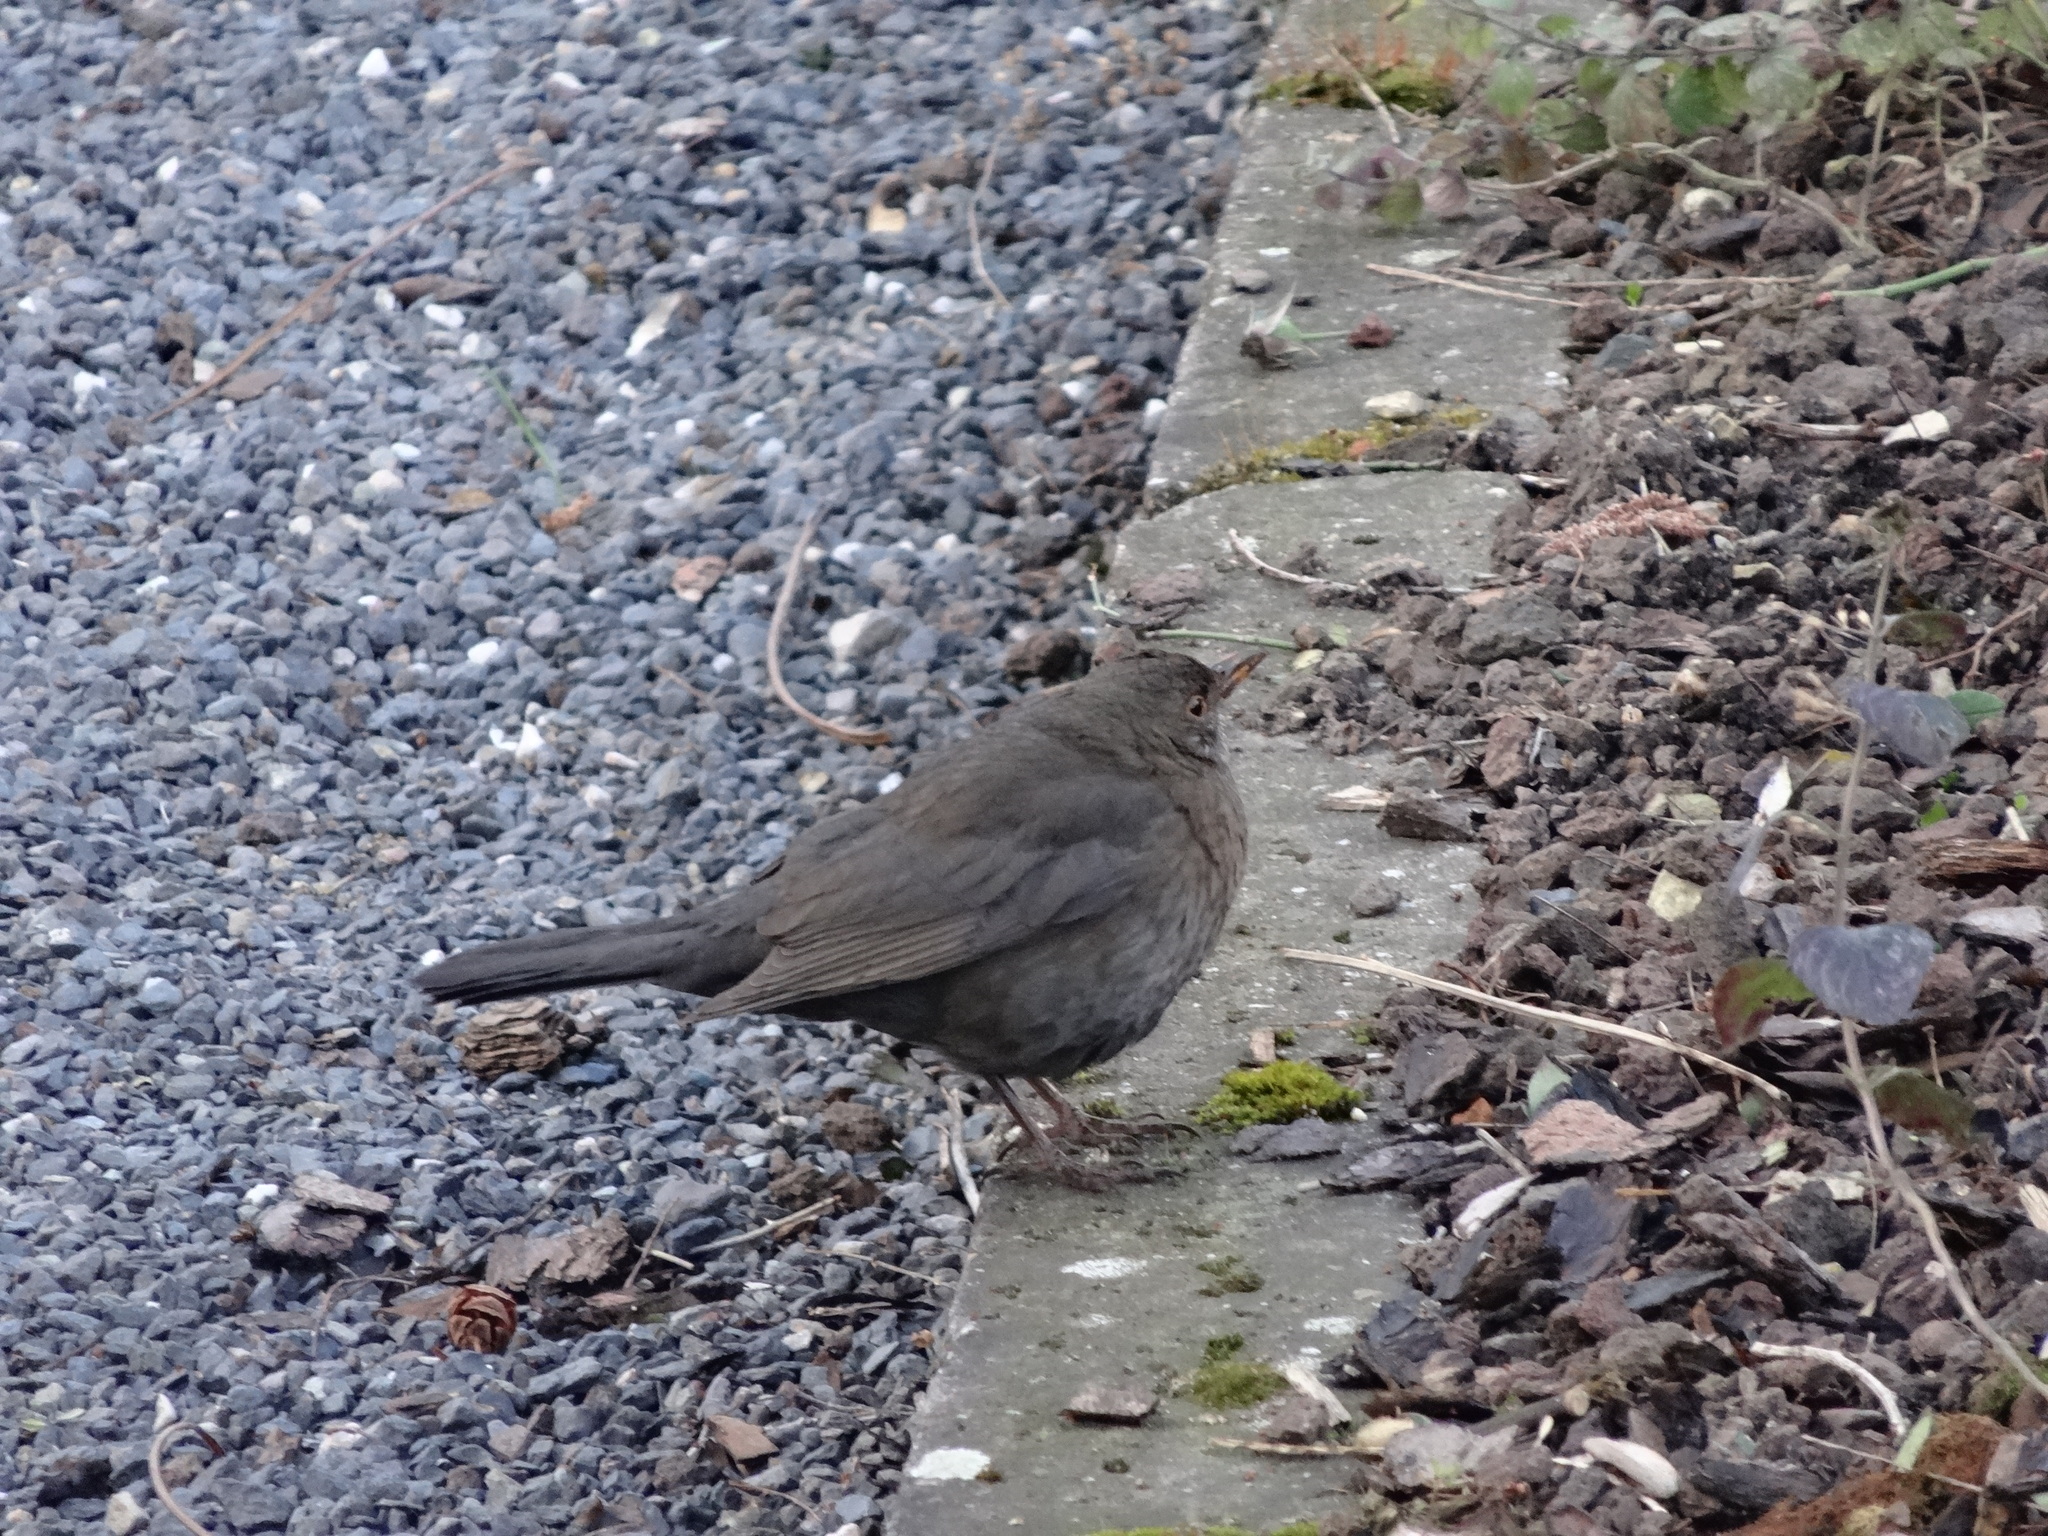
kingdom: Animalia
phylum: Chordata
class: Aves
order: Passeriformes
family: Turdidae
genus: Turdus
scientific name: Turdus merula
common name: Common blackbird
